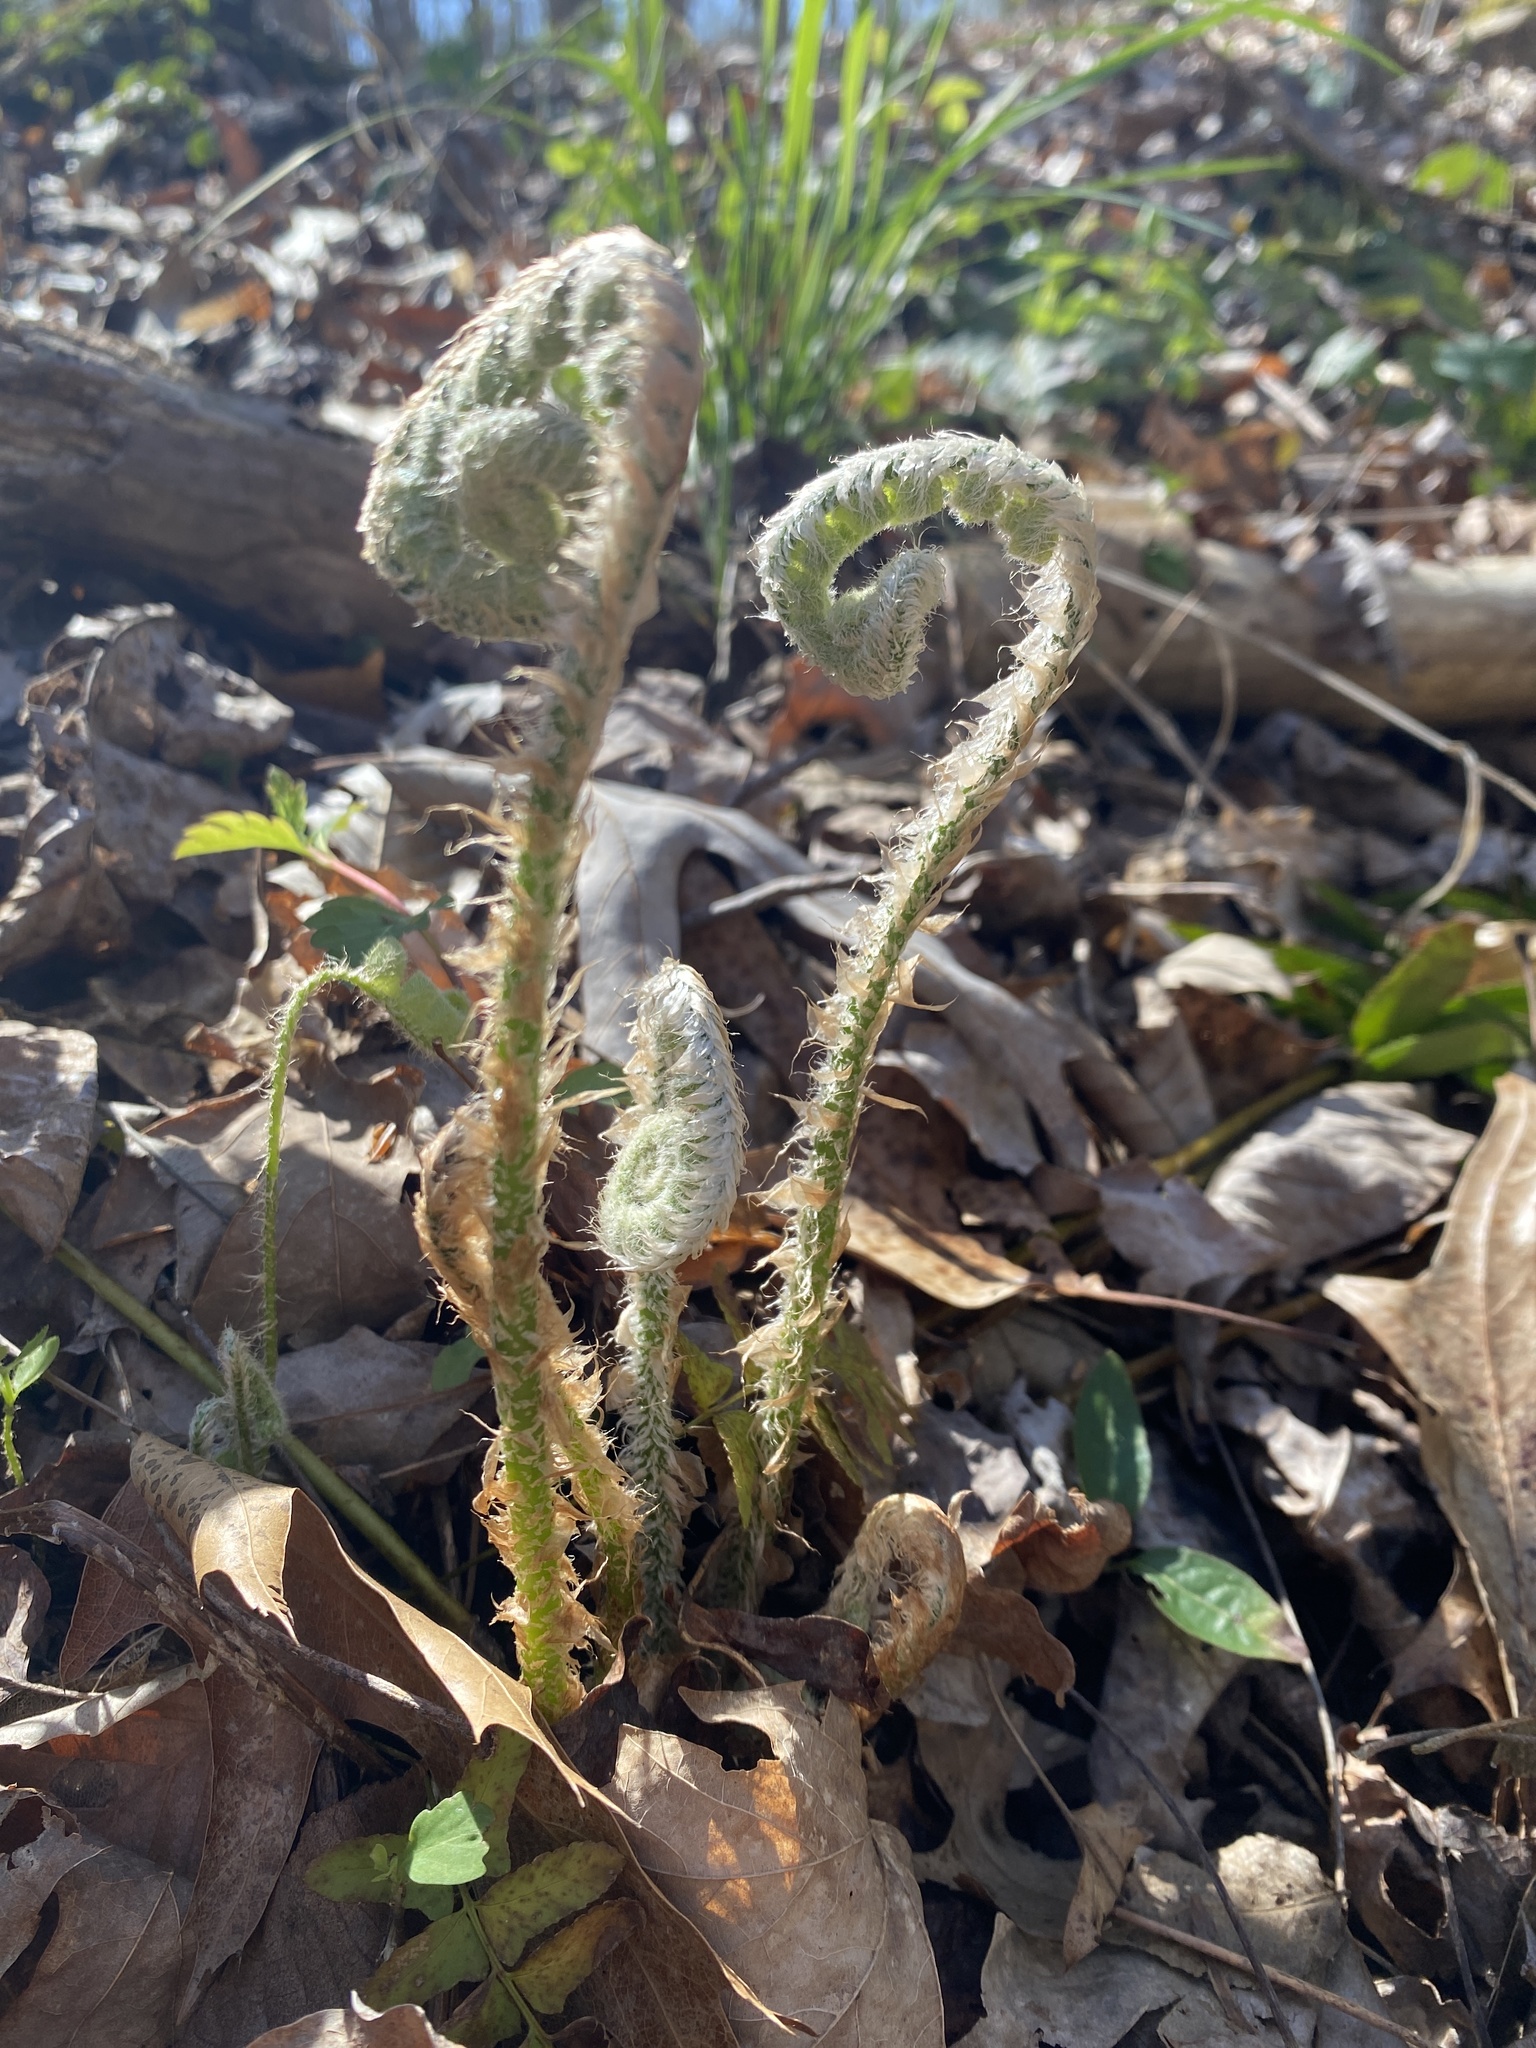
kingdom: Plantae
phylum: Tracheophyta
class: Polypodiopsida
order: Polypodiales
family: Dryopteridaceae
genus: Polystichum
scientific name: Polystichum acrostichoides
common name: Christmas fern
